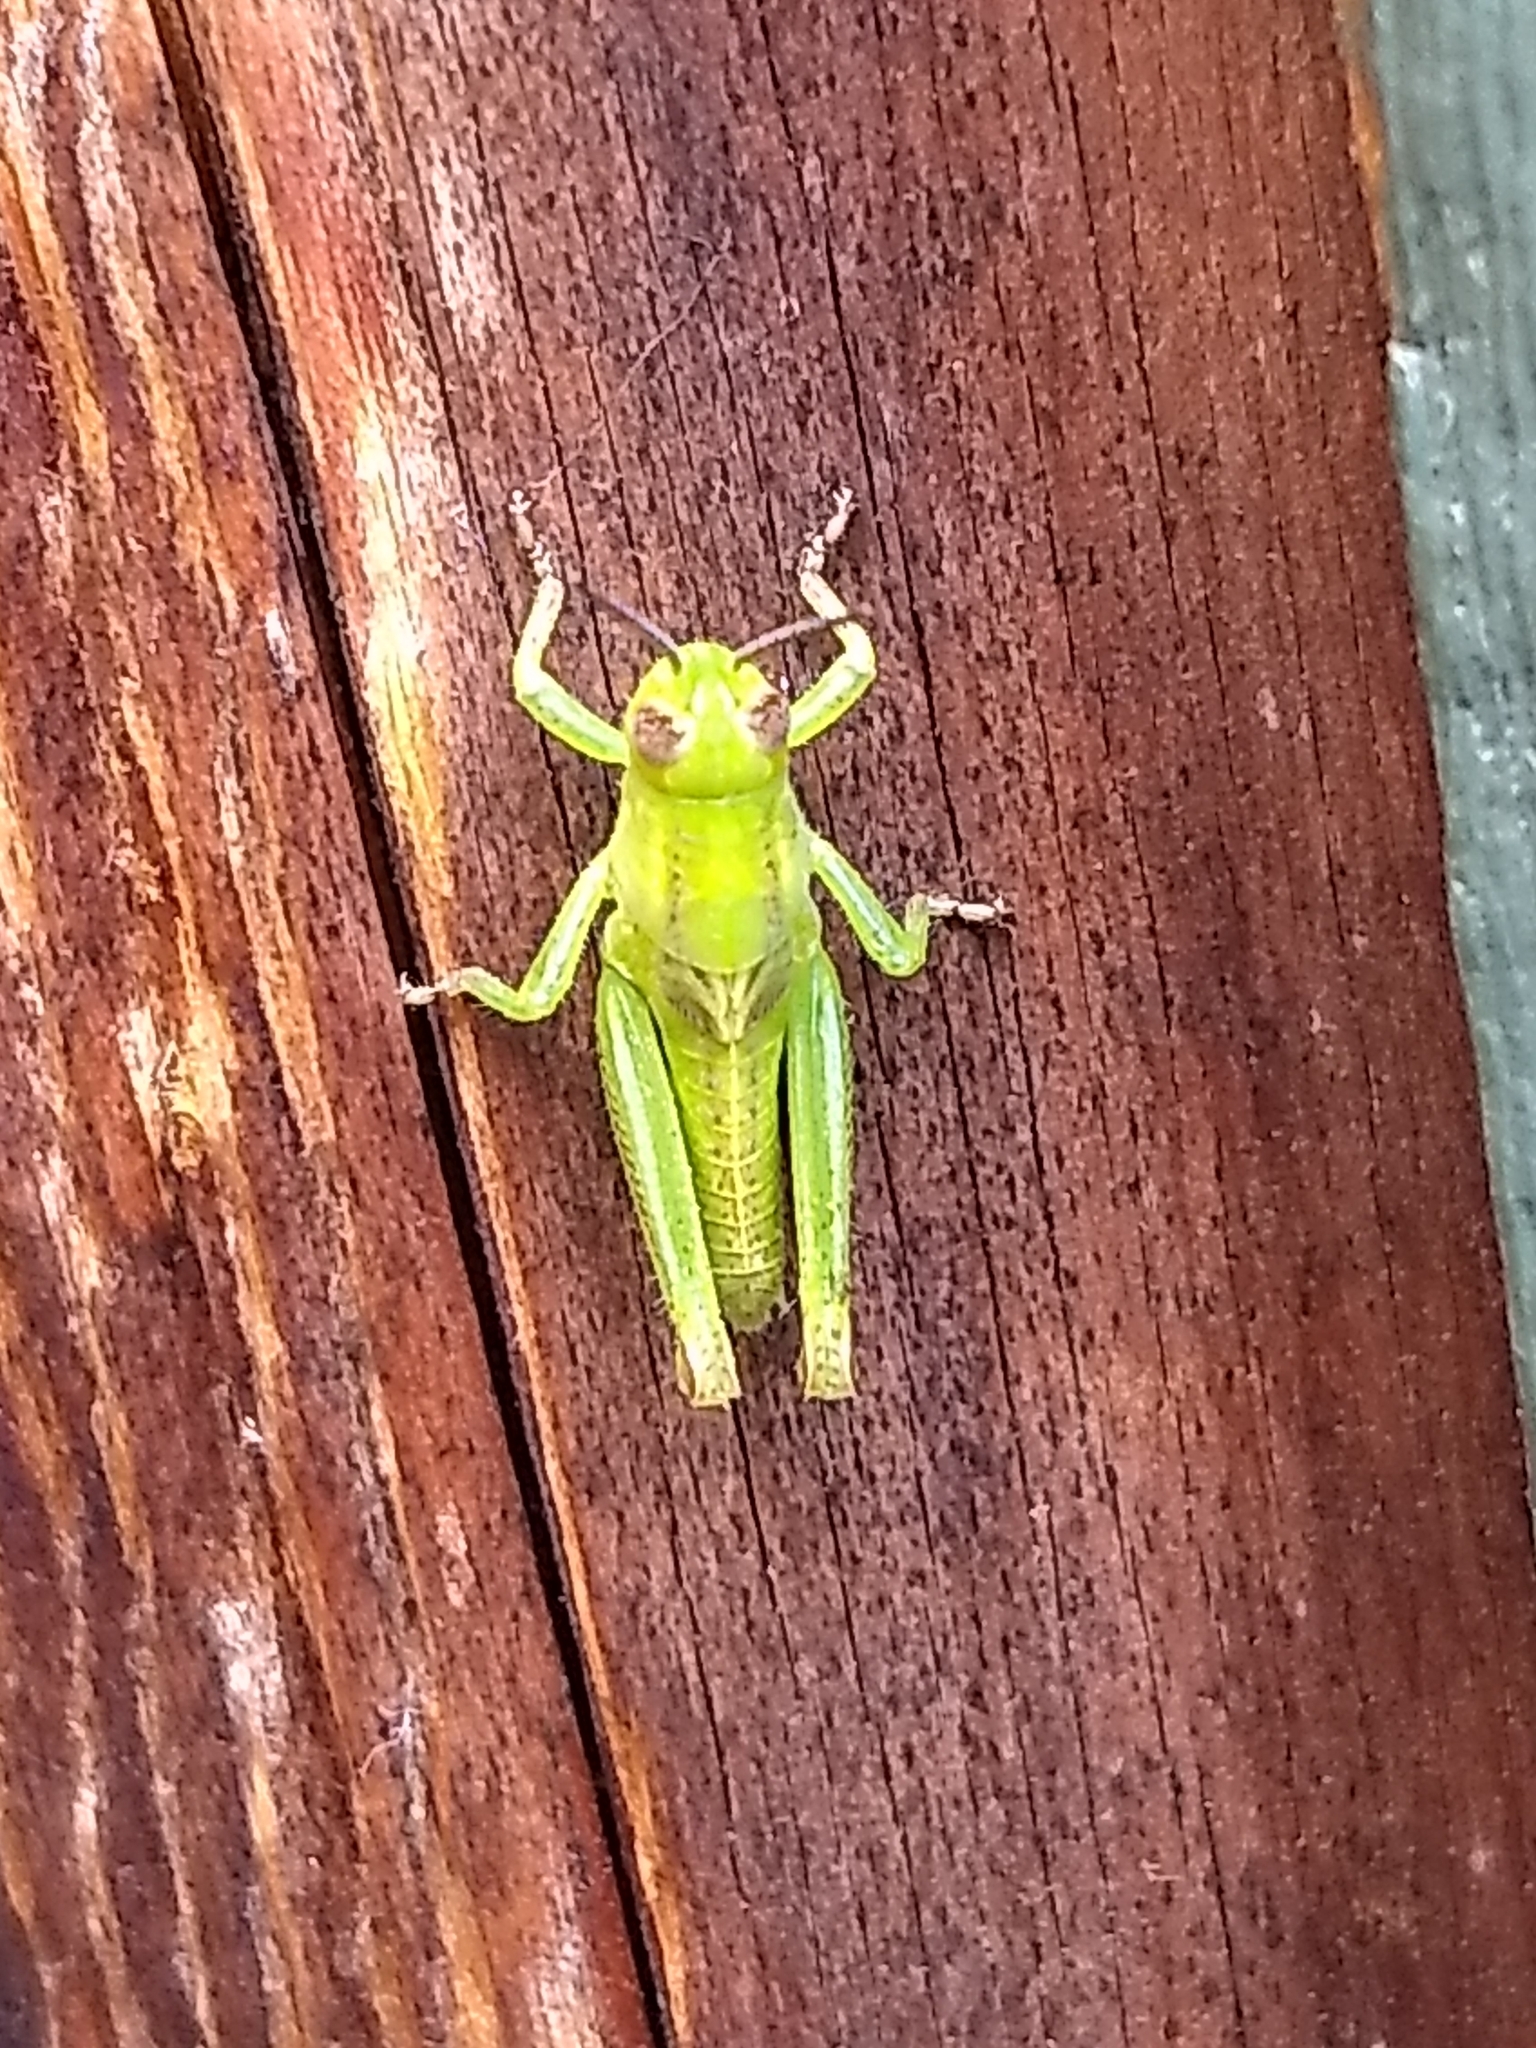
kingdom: Animalia
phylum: Arthropoda
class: Insecta
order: Orthoptera
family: Acrididae
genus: Melanoplus
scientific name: Melanoplus bivittatus
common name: Two-striped grasshopper
